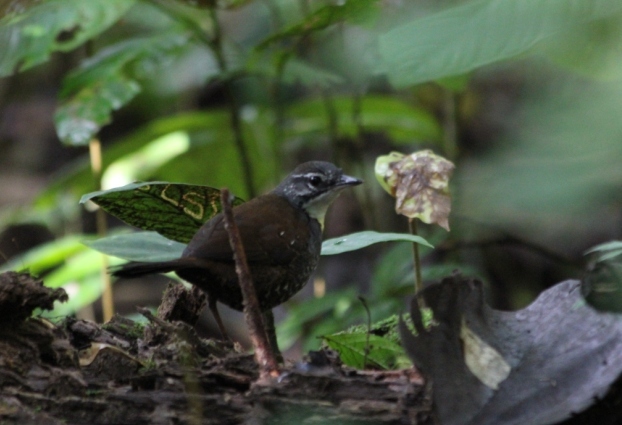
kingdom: Animalia
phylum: Chordata
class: Aves
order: Passeriformes
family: Rhinocryptidae
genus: Liosceles
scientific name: Liosceles thoracicus
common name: Rusty-belted tapaculo
